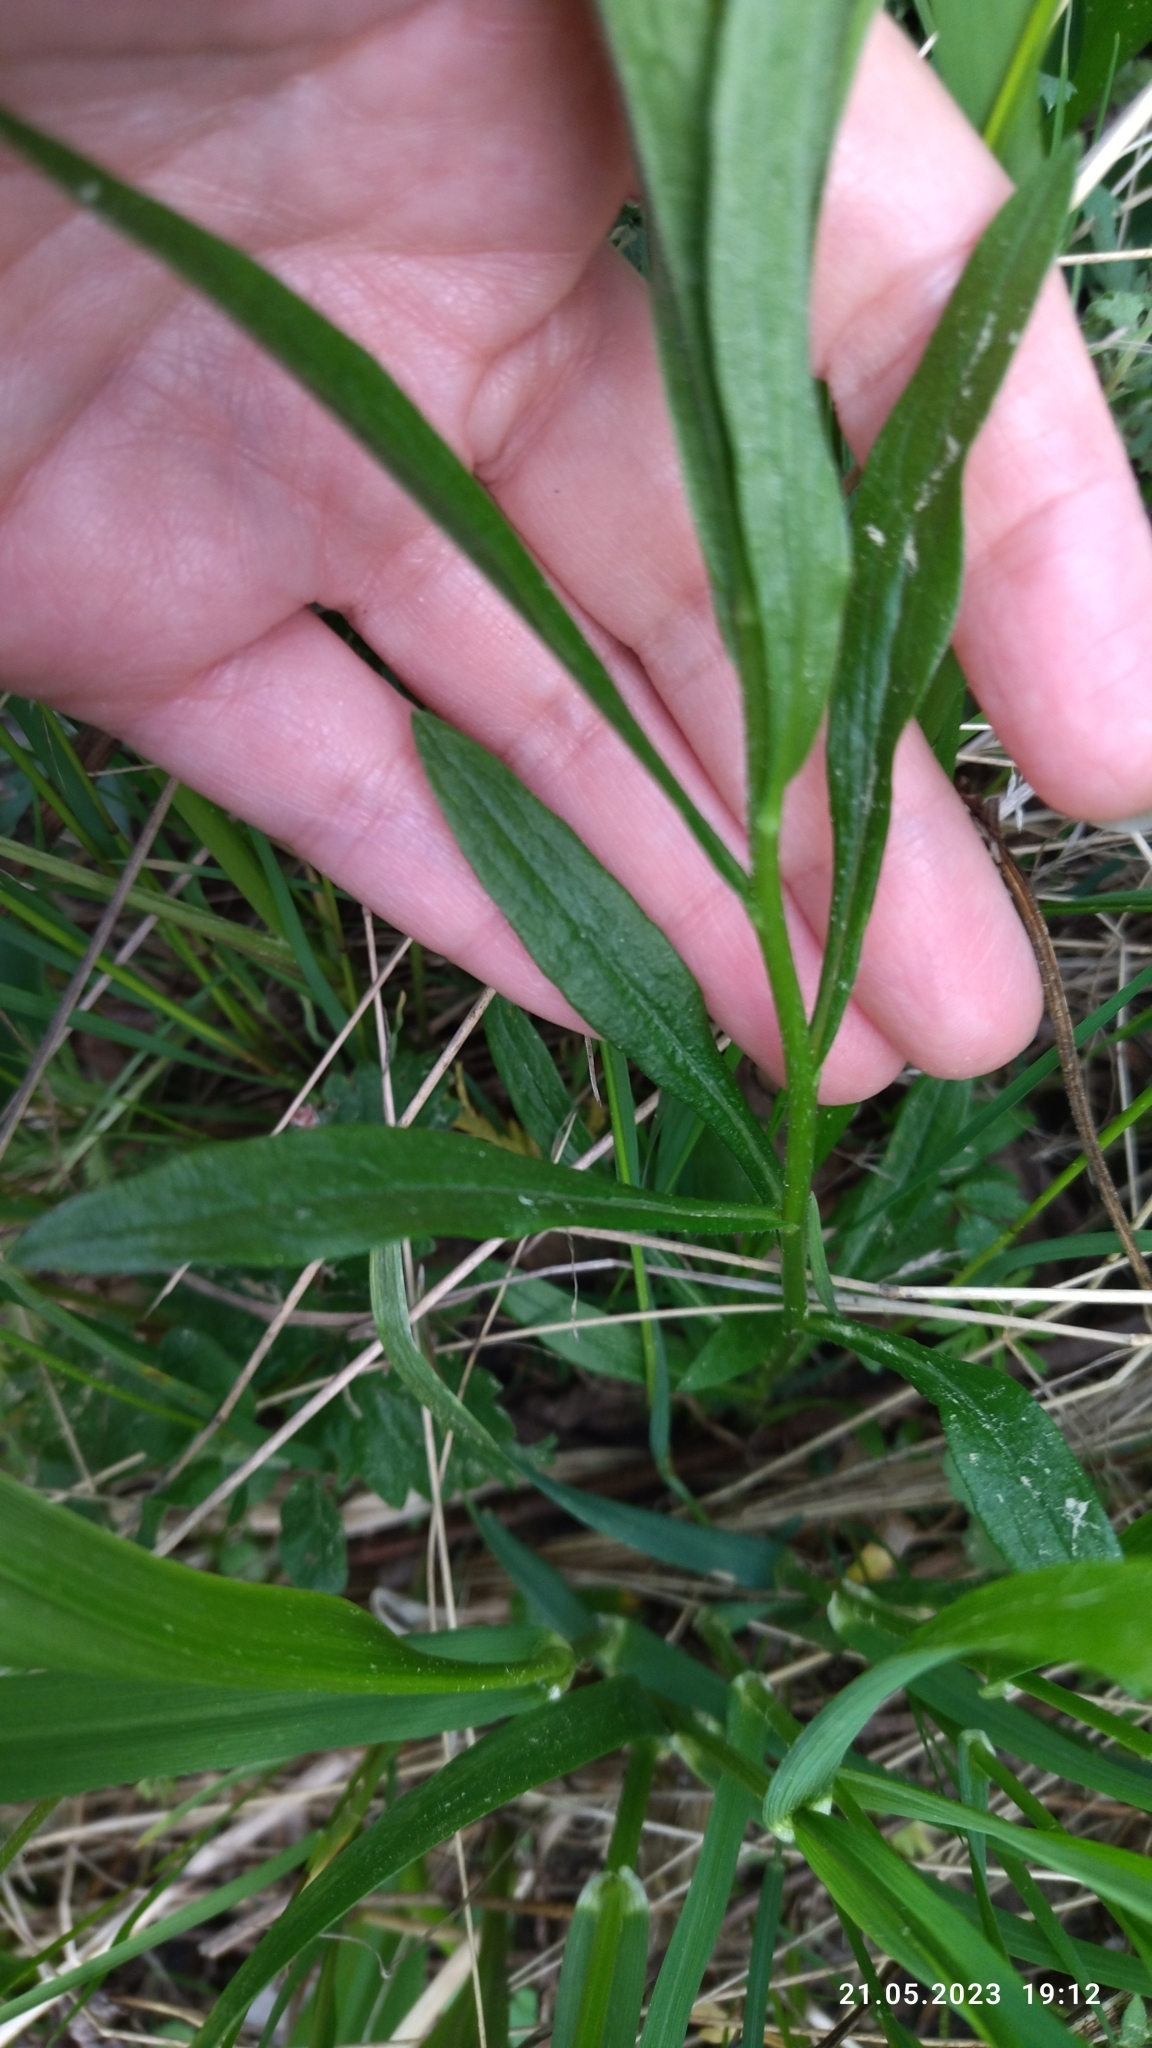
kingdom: Plantae
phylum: Tracheophyta
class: Magnoliopsida
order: Asterales
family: Campanulaceae
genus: Campanula
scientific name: Campanula persicifolia
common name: Peach-leaved bellflower
